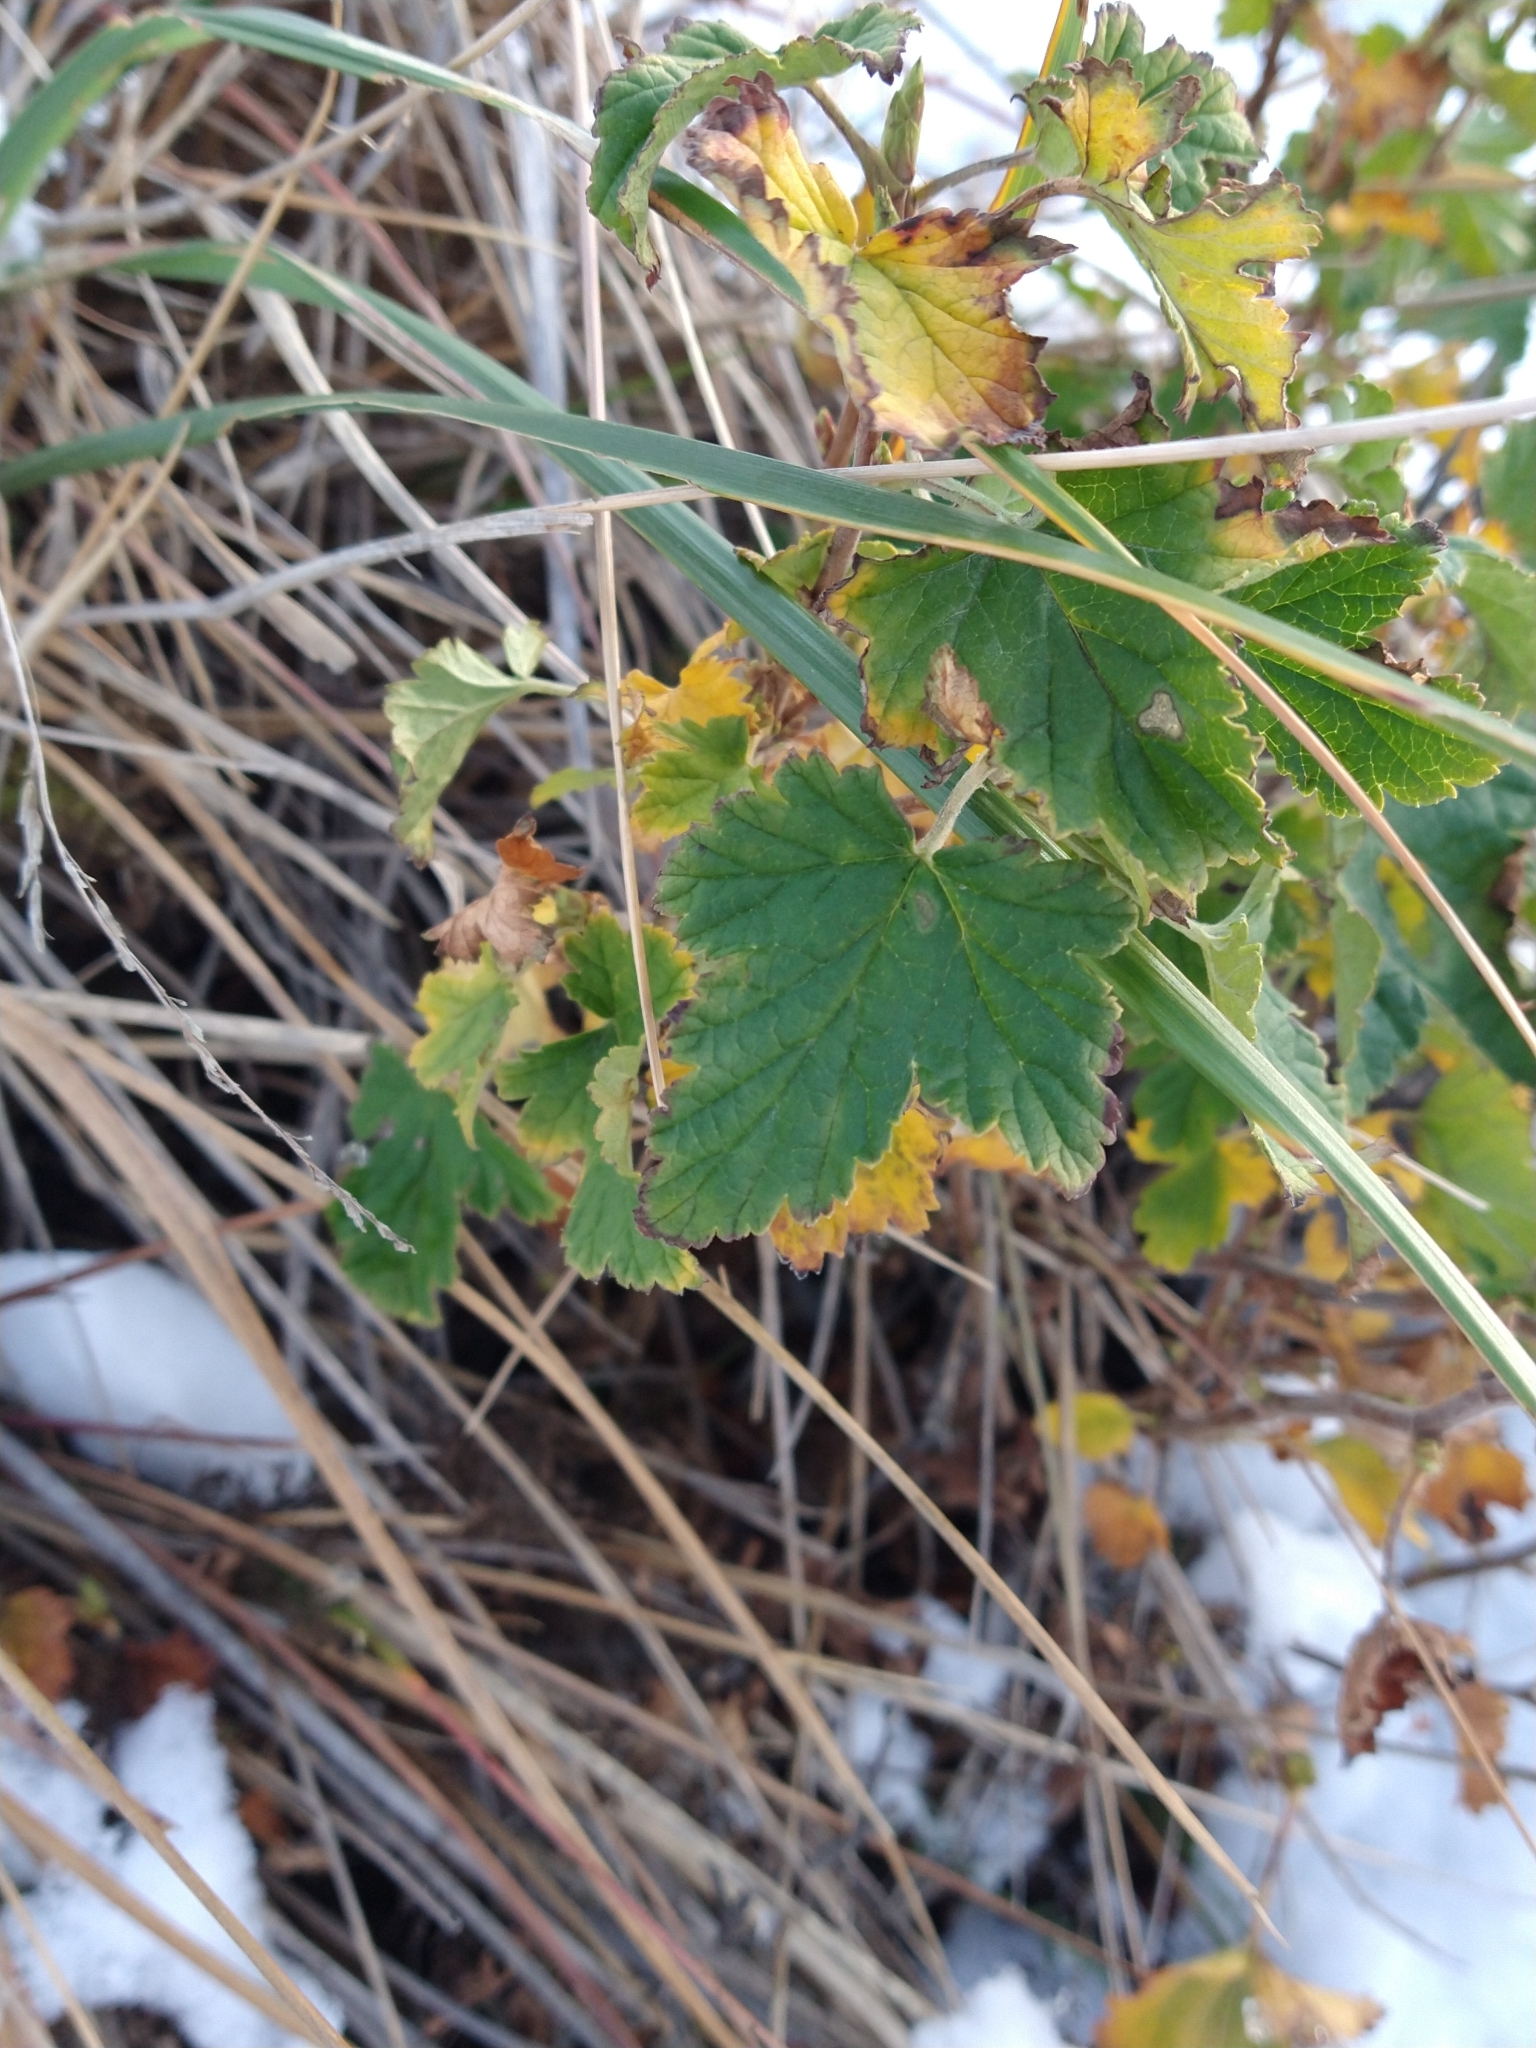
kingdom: Plantae
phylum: Tracheophyta
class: Magnoliopsida
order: Saxifragales
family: Grossulariaceae
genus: Ribes
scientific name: Ribes magellanicum
